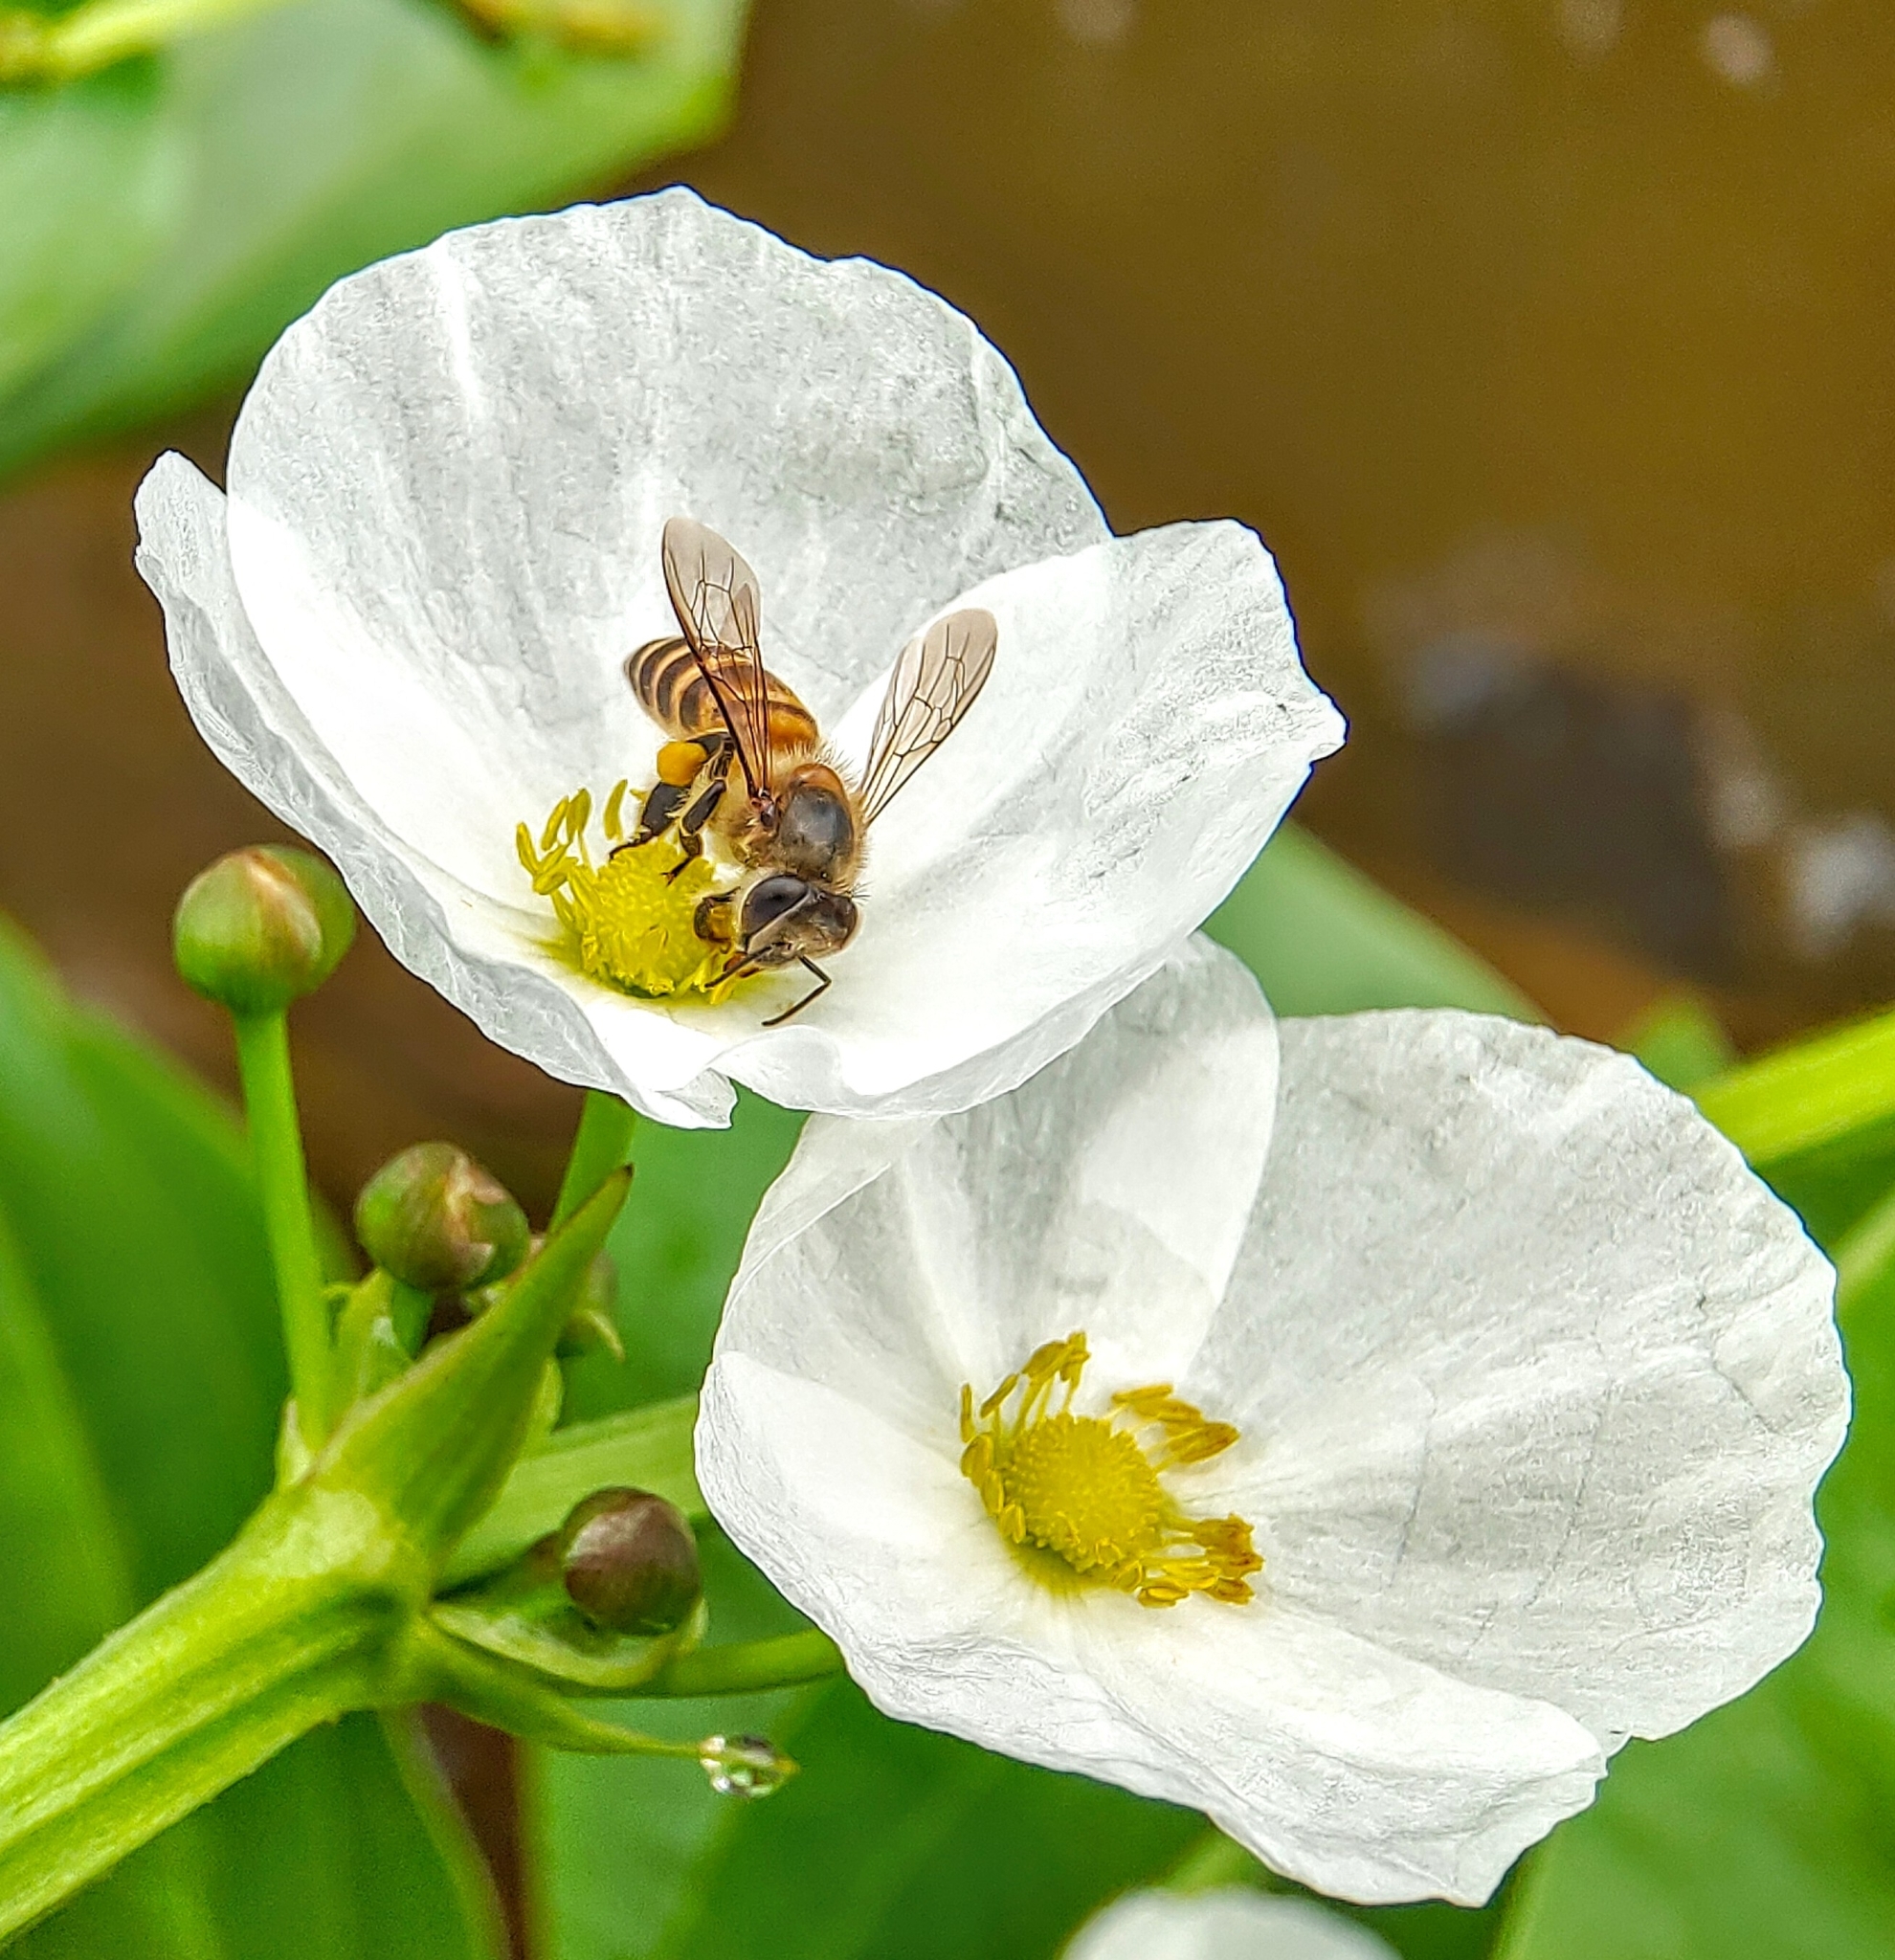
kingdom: Animalia
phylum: Arthropoda
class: Insecta
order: Hymenoptera
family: Apidae
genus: Apis
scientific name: Apis cerana
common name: Honey bee
